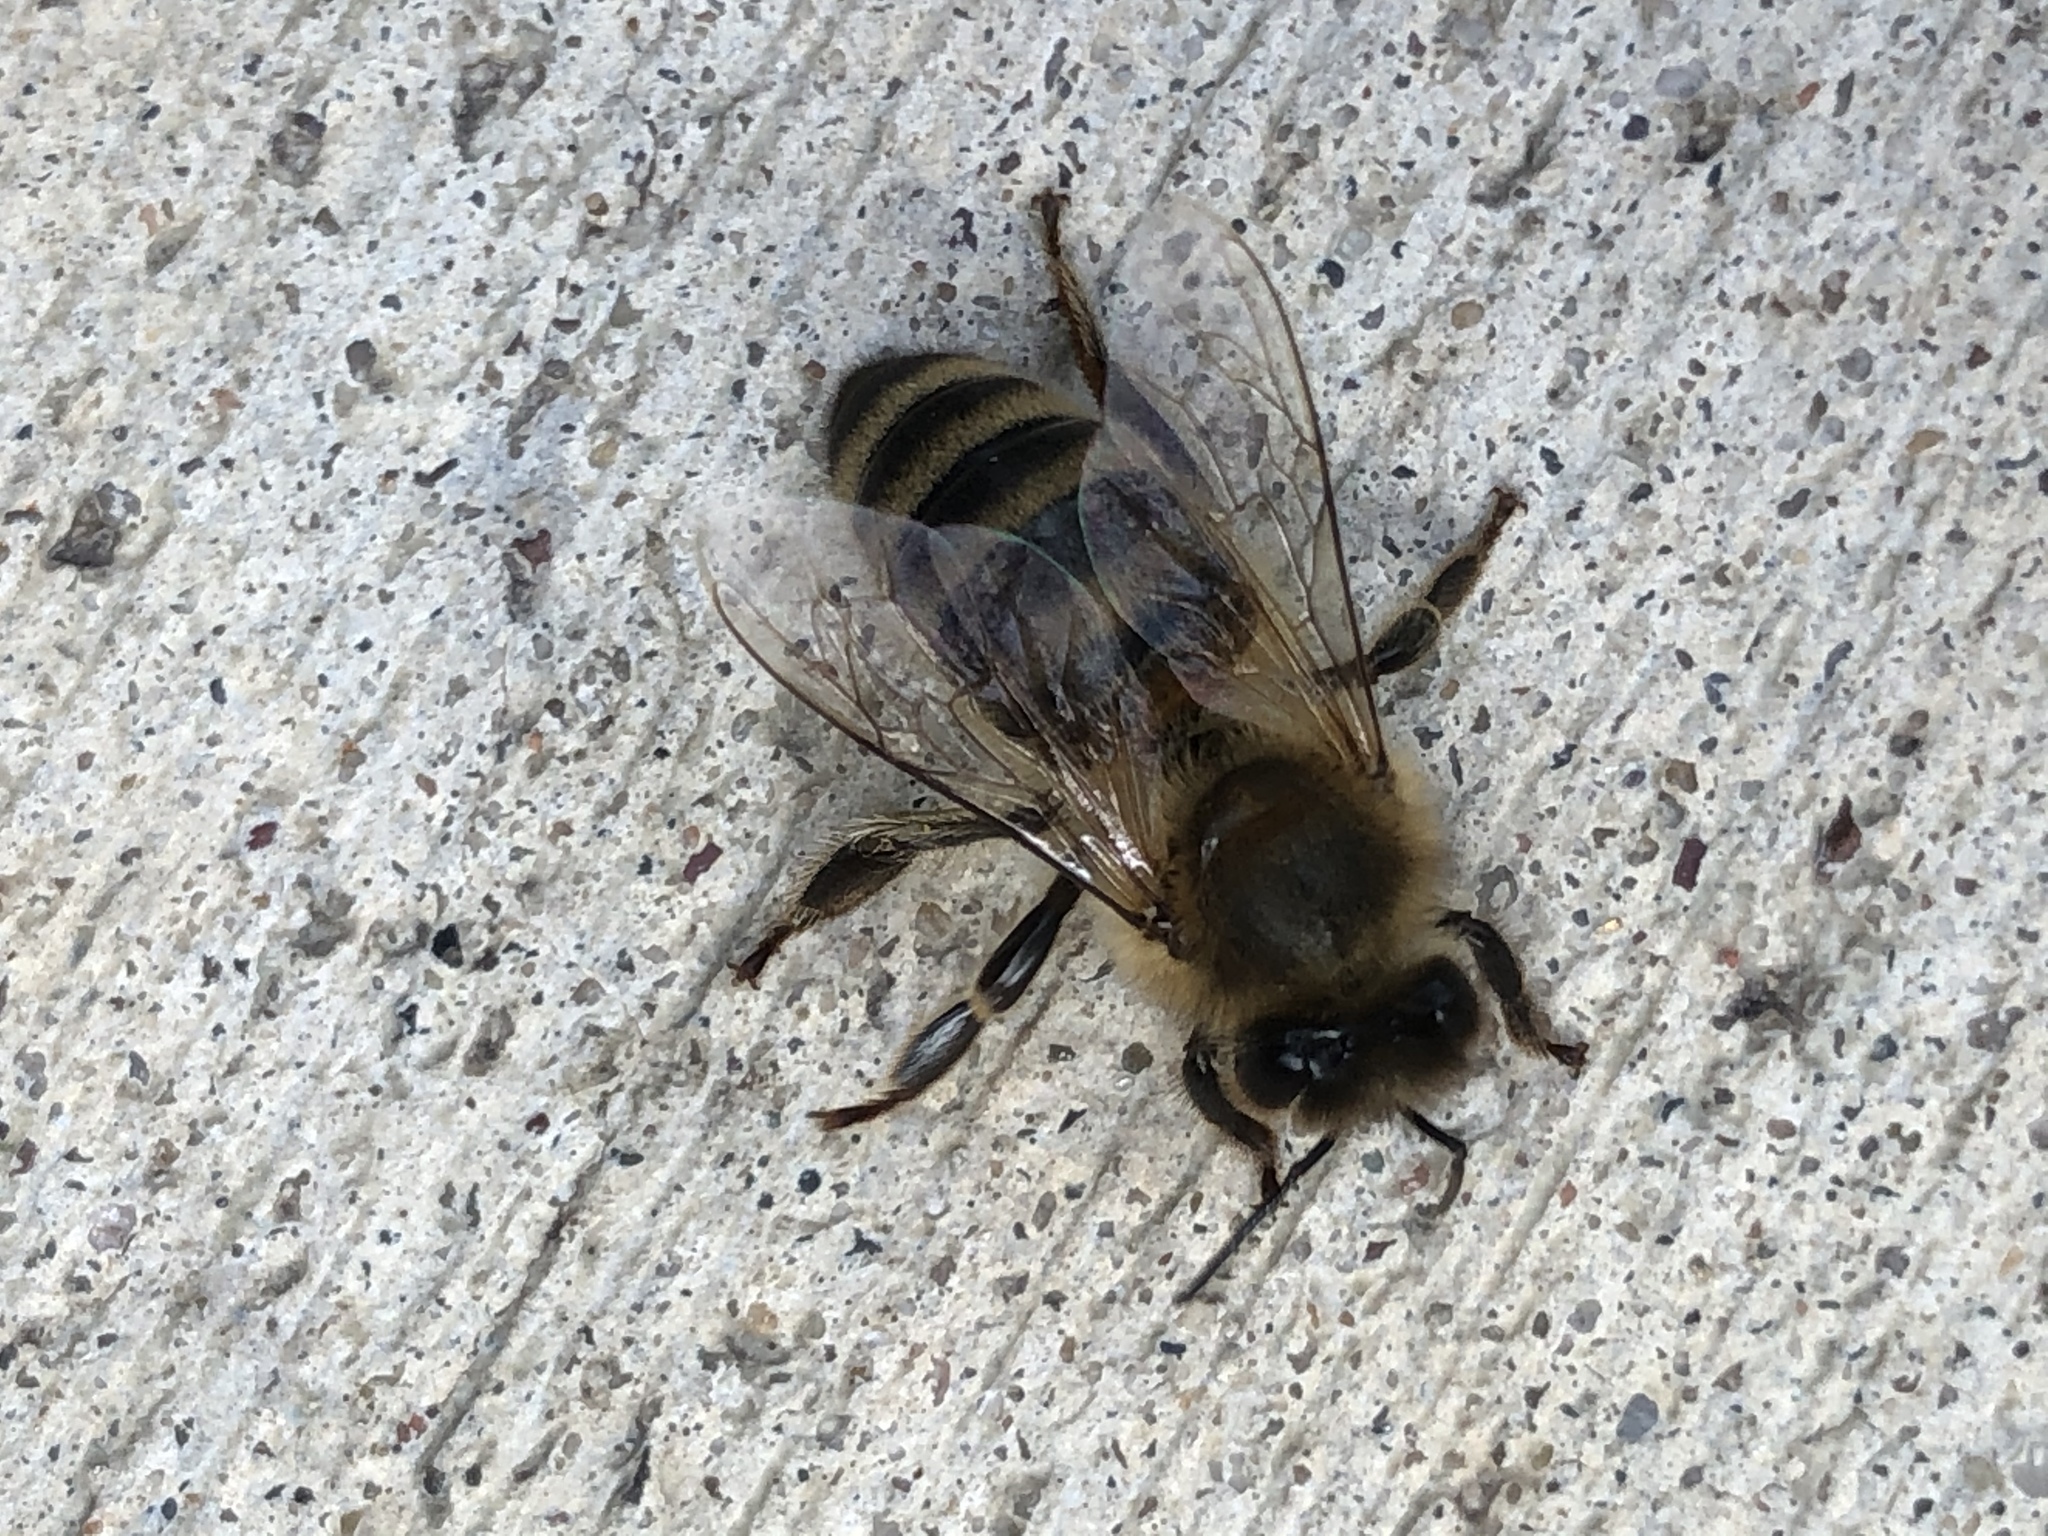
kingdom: Animalia
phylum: Arthropoda
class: Insecta
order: Hymenoptera
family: Apidae
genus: Apis
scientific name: Apis mellifera
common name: Honey bee
